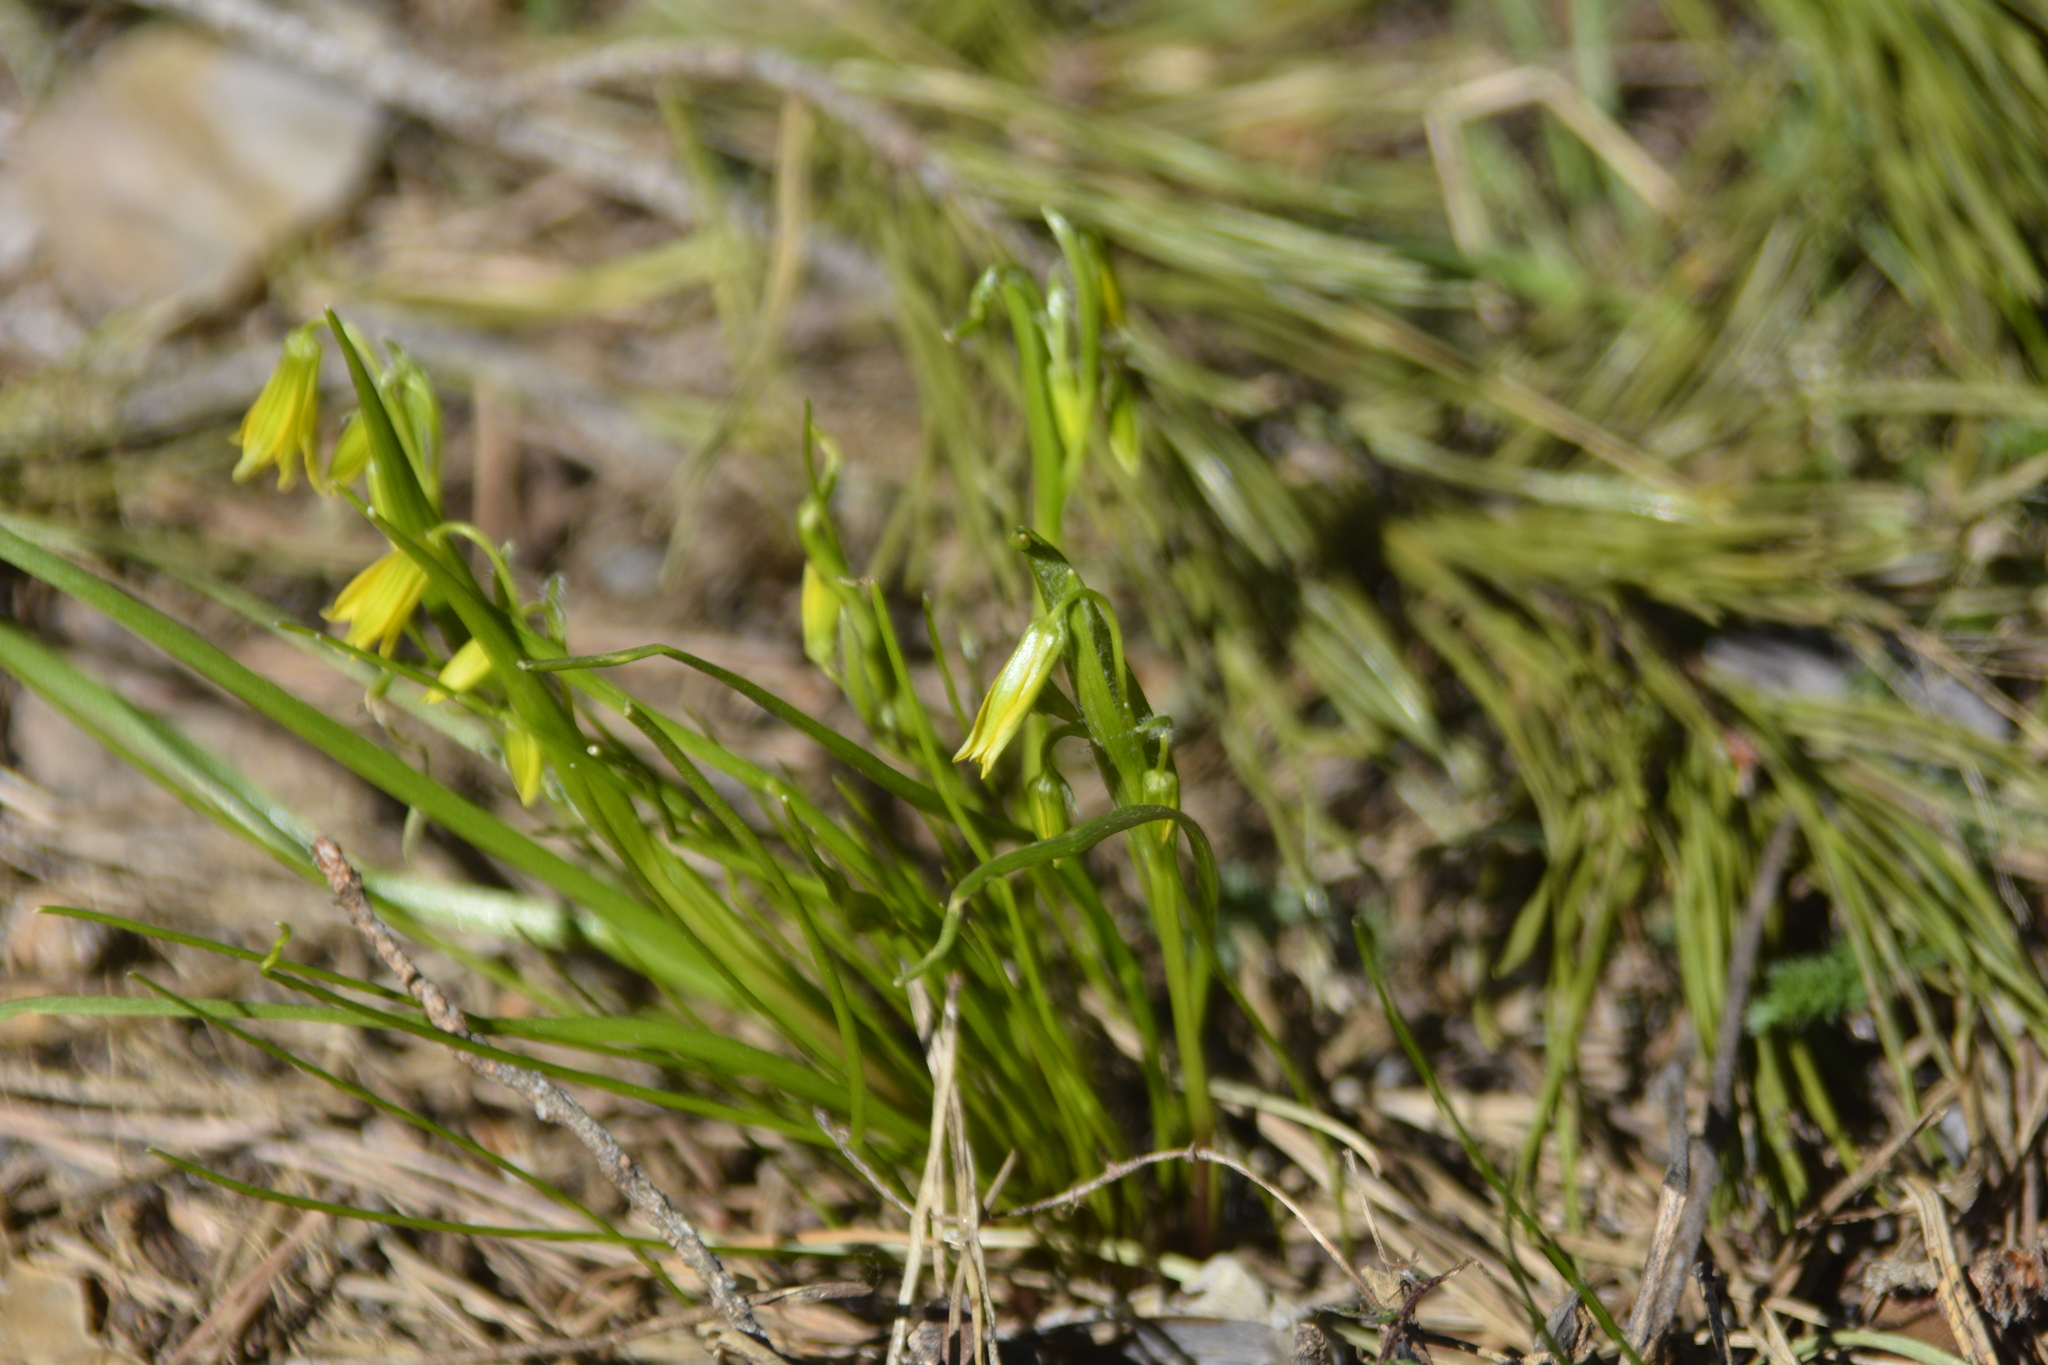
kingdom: Plantae
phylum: Tracheophyta
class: Liliopsida
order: Liliales
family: Liliaceae
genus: Gagea
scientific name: Gagea minima
